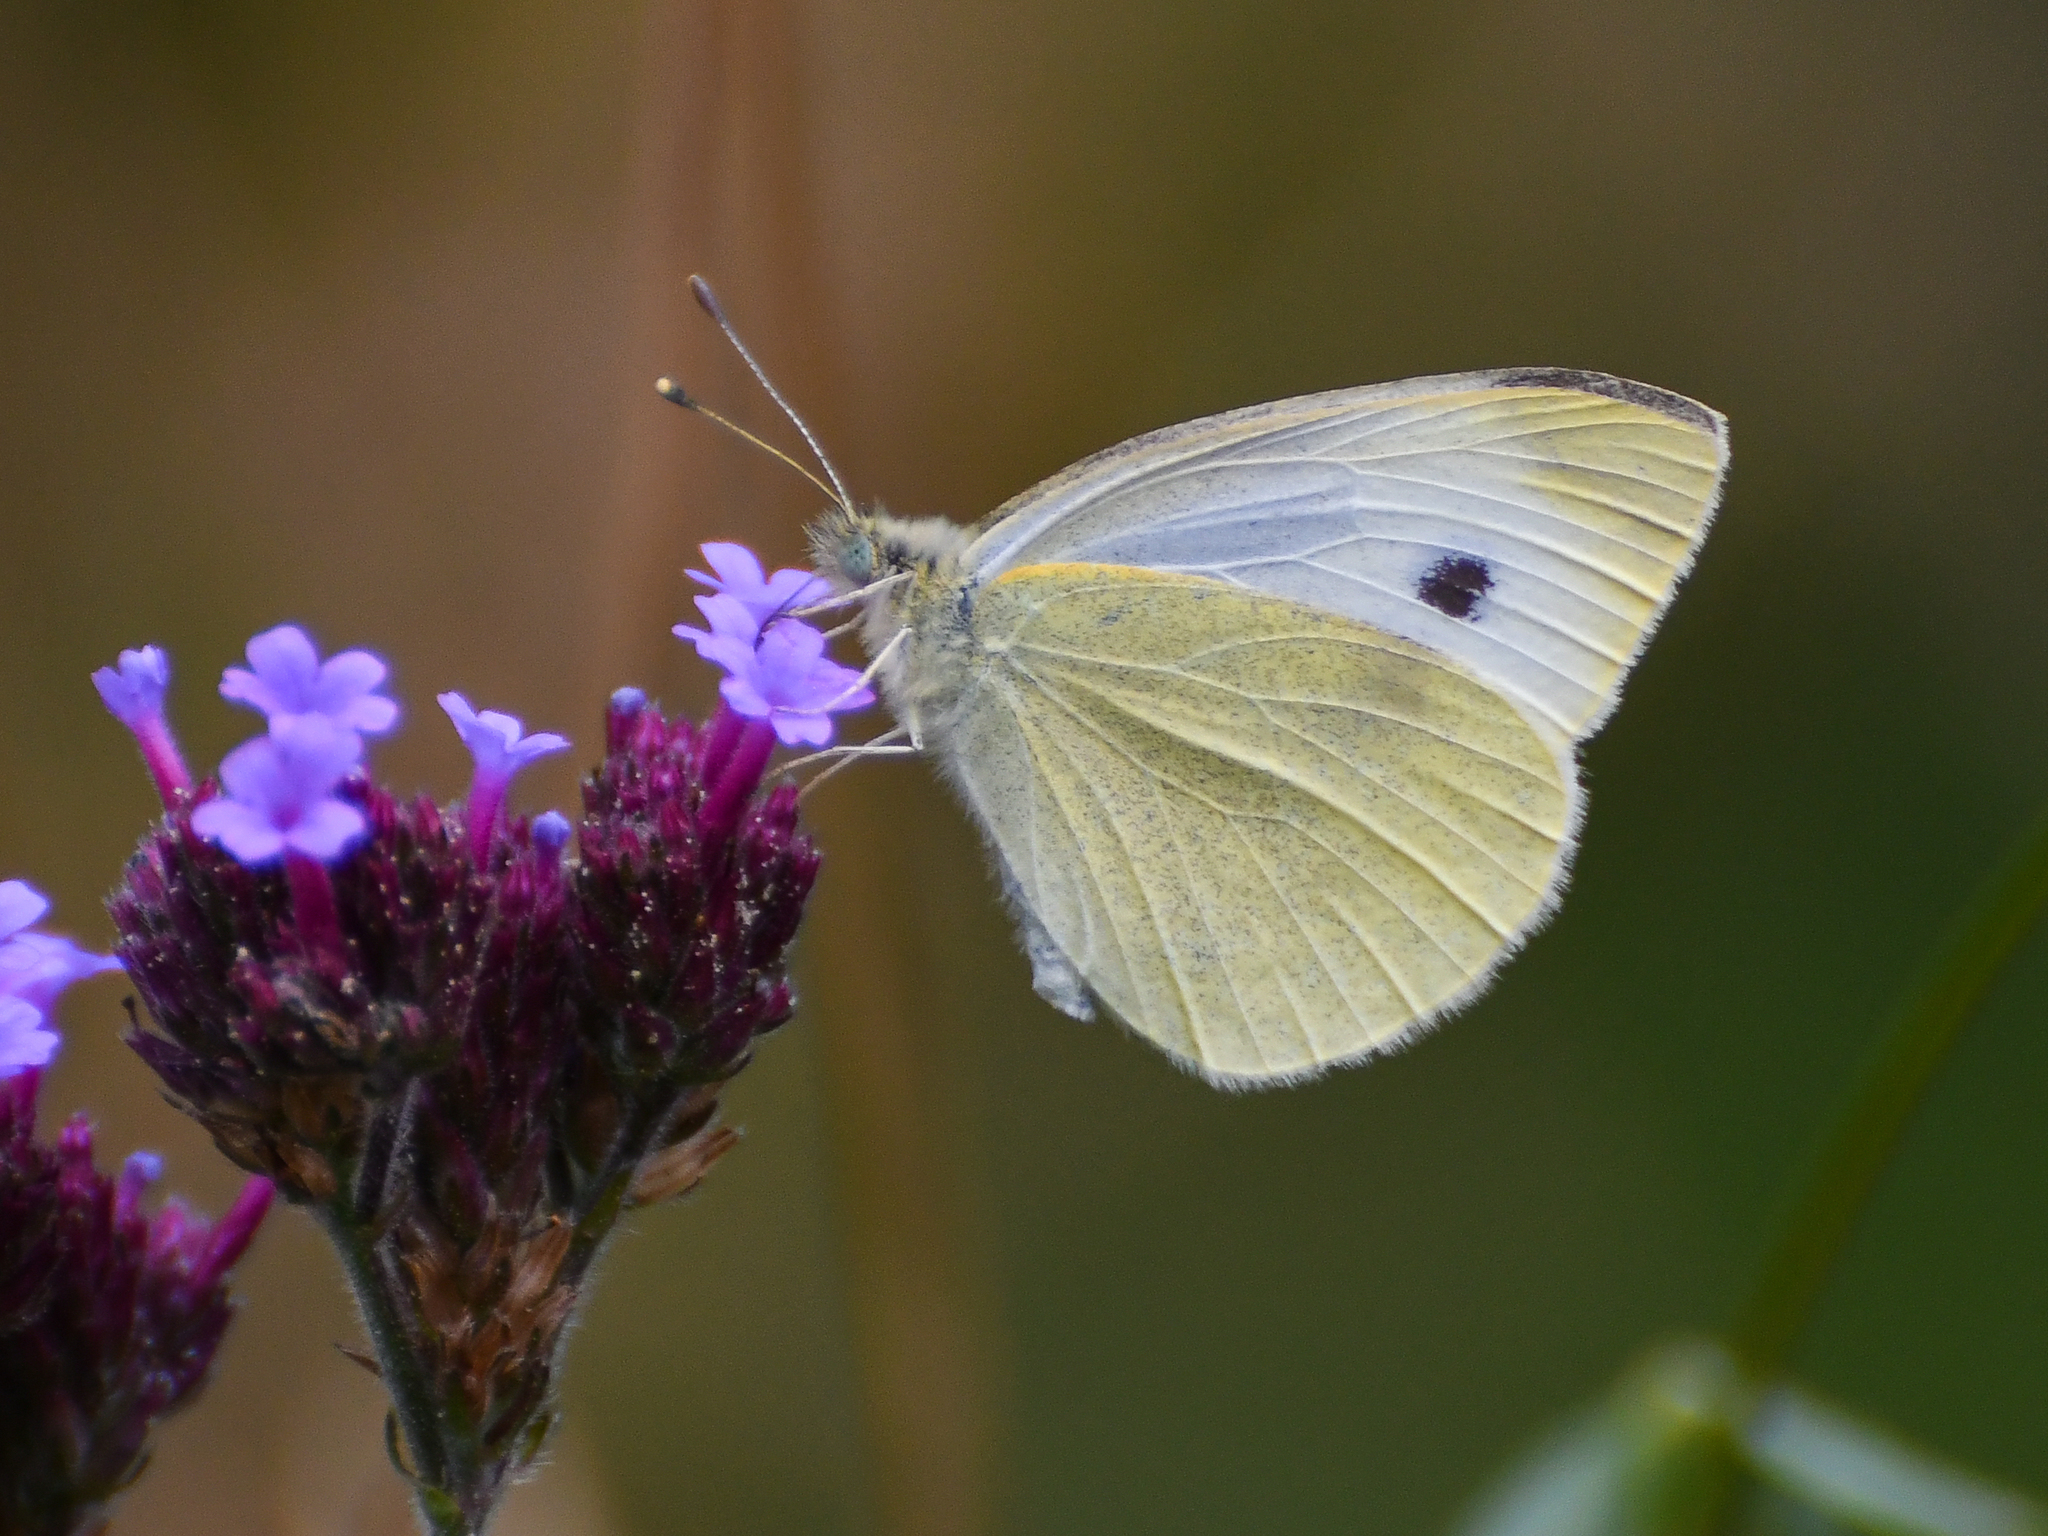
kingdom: Animalia
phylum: Arthropoda
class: Insecta
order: Lepidoptera
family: Pieridae
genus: Pieris
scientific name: Pieris rapae
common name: Small white
